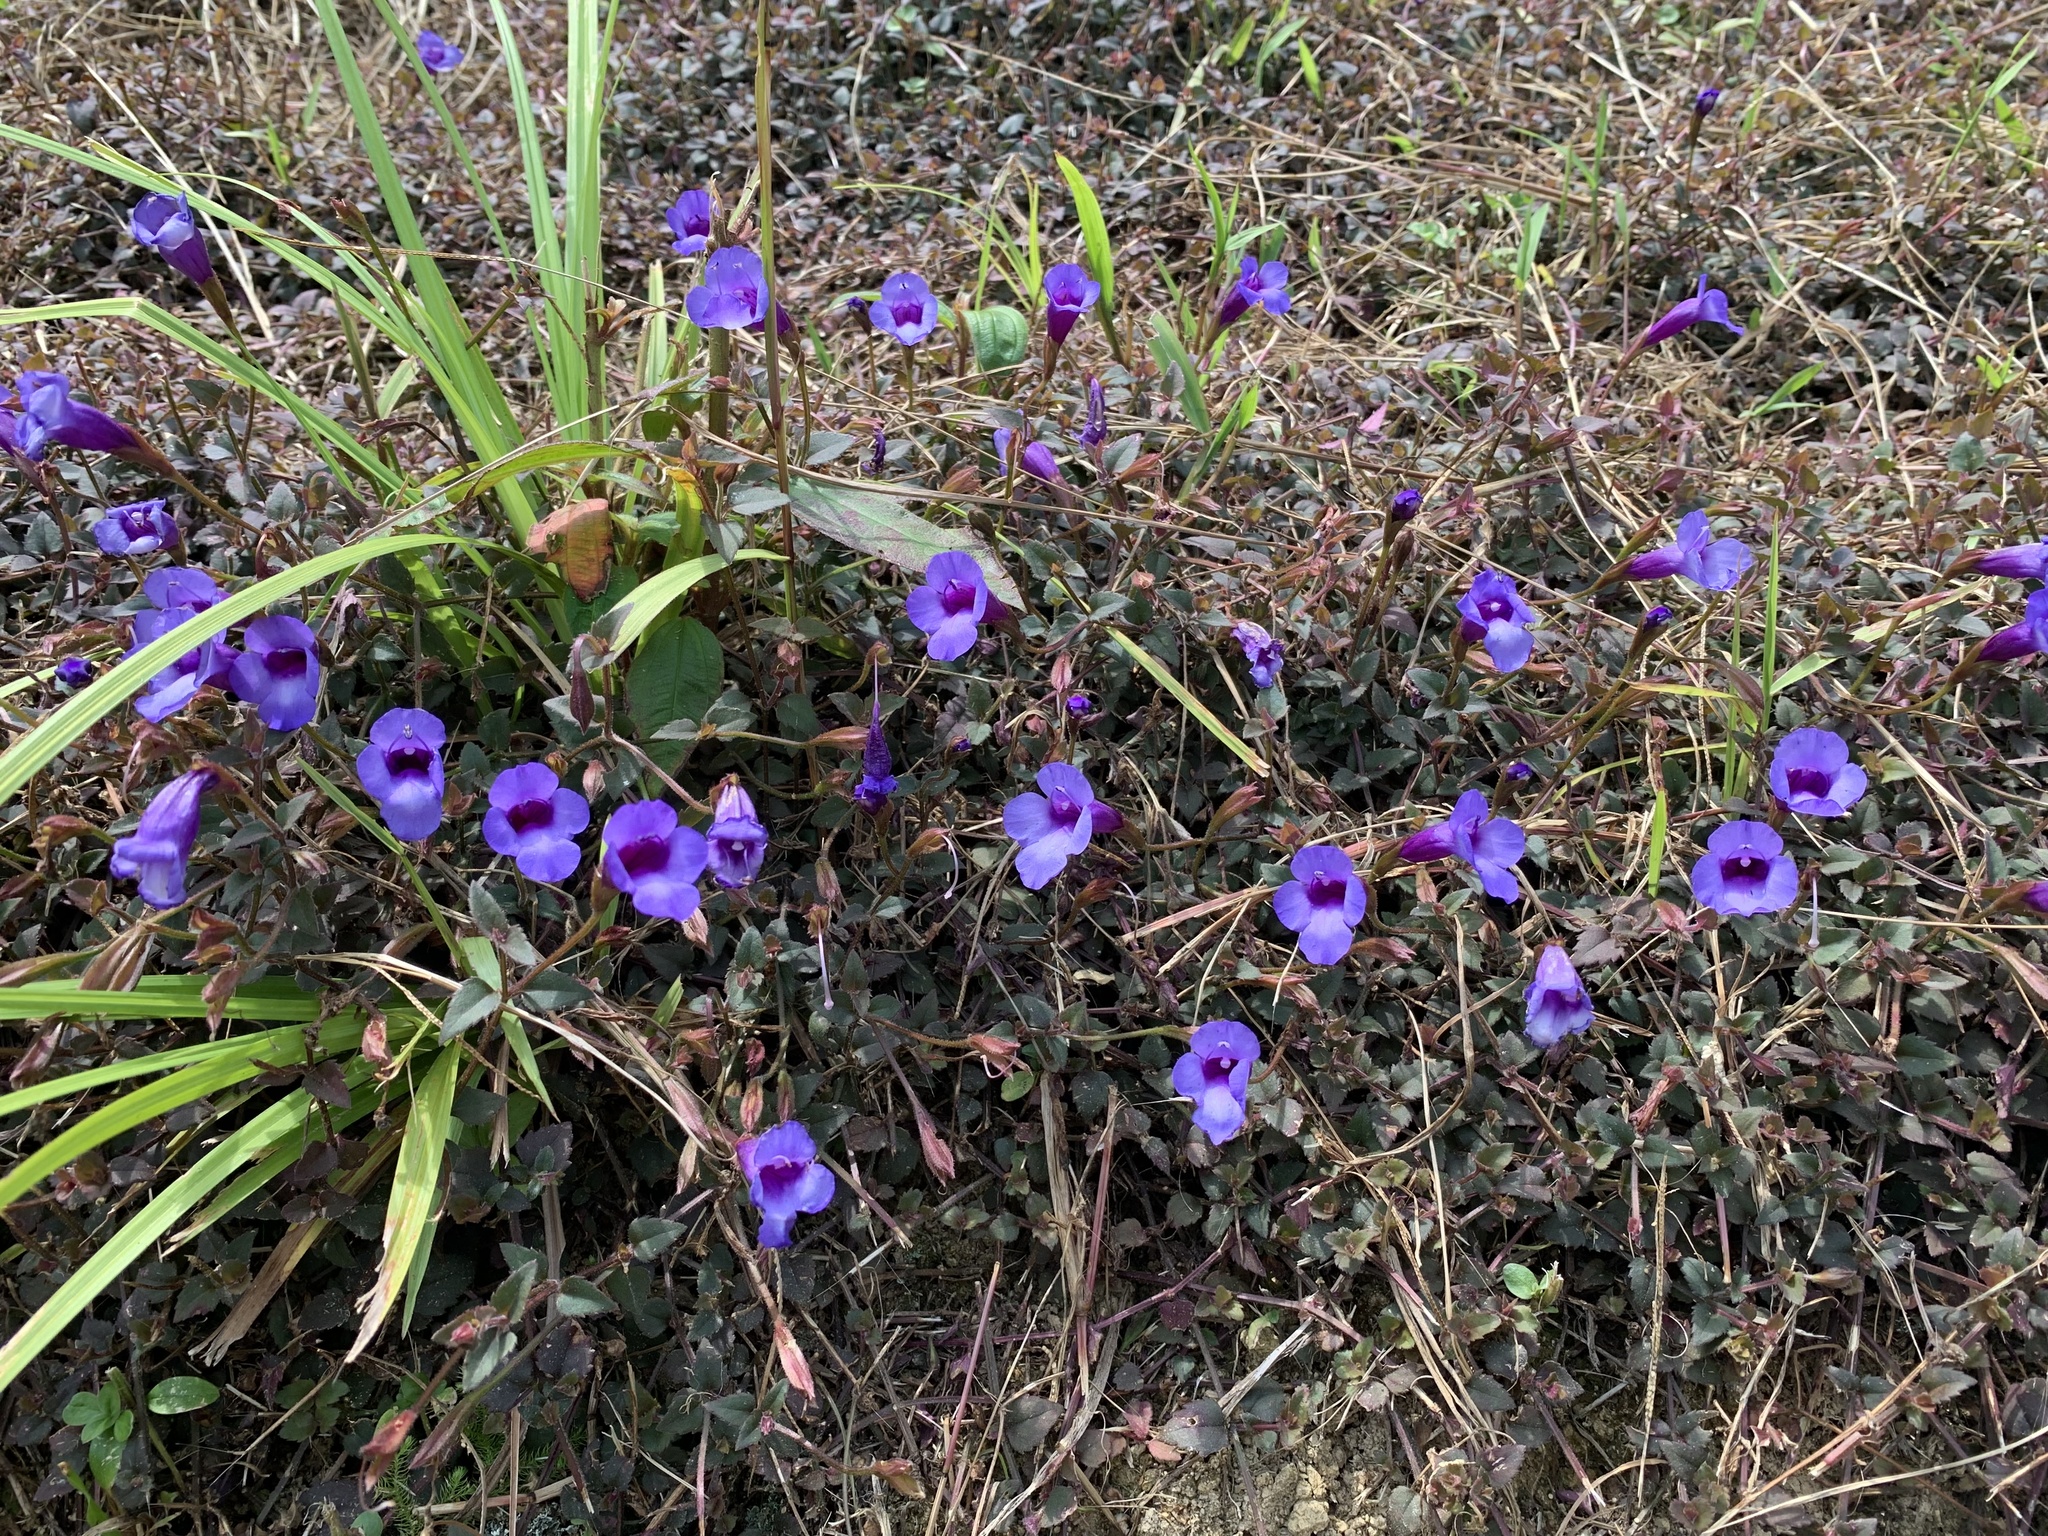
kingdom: Plantae
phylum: Tracheophyta
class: Magnoliopsida
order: Lamiales
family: Linderniaceae
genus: Torenia
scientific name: Torenia concolor
